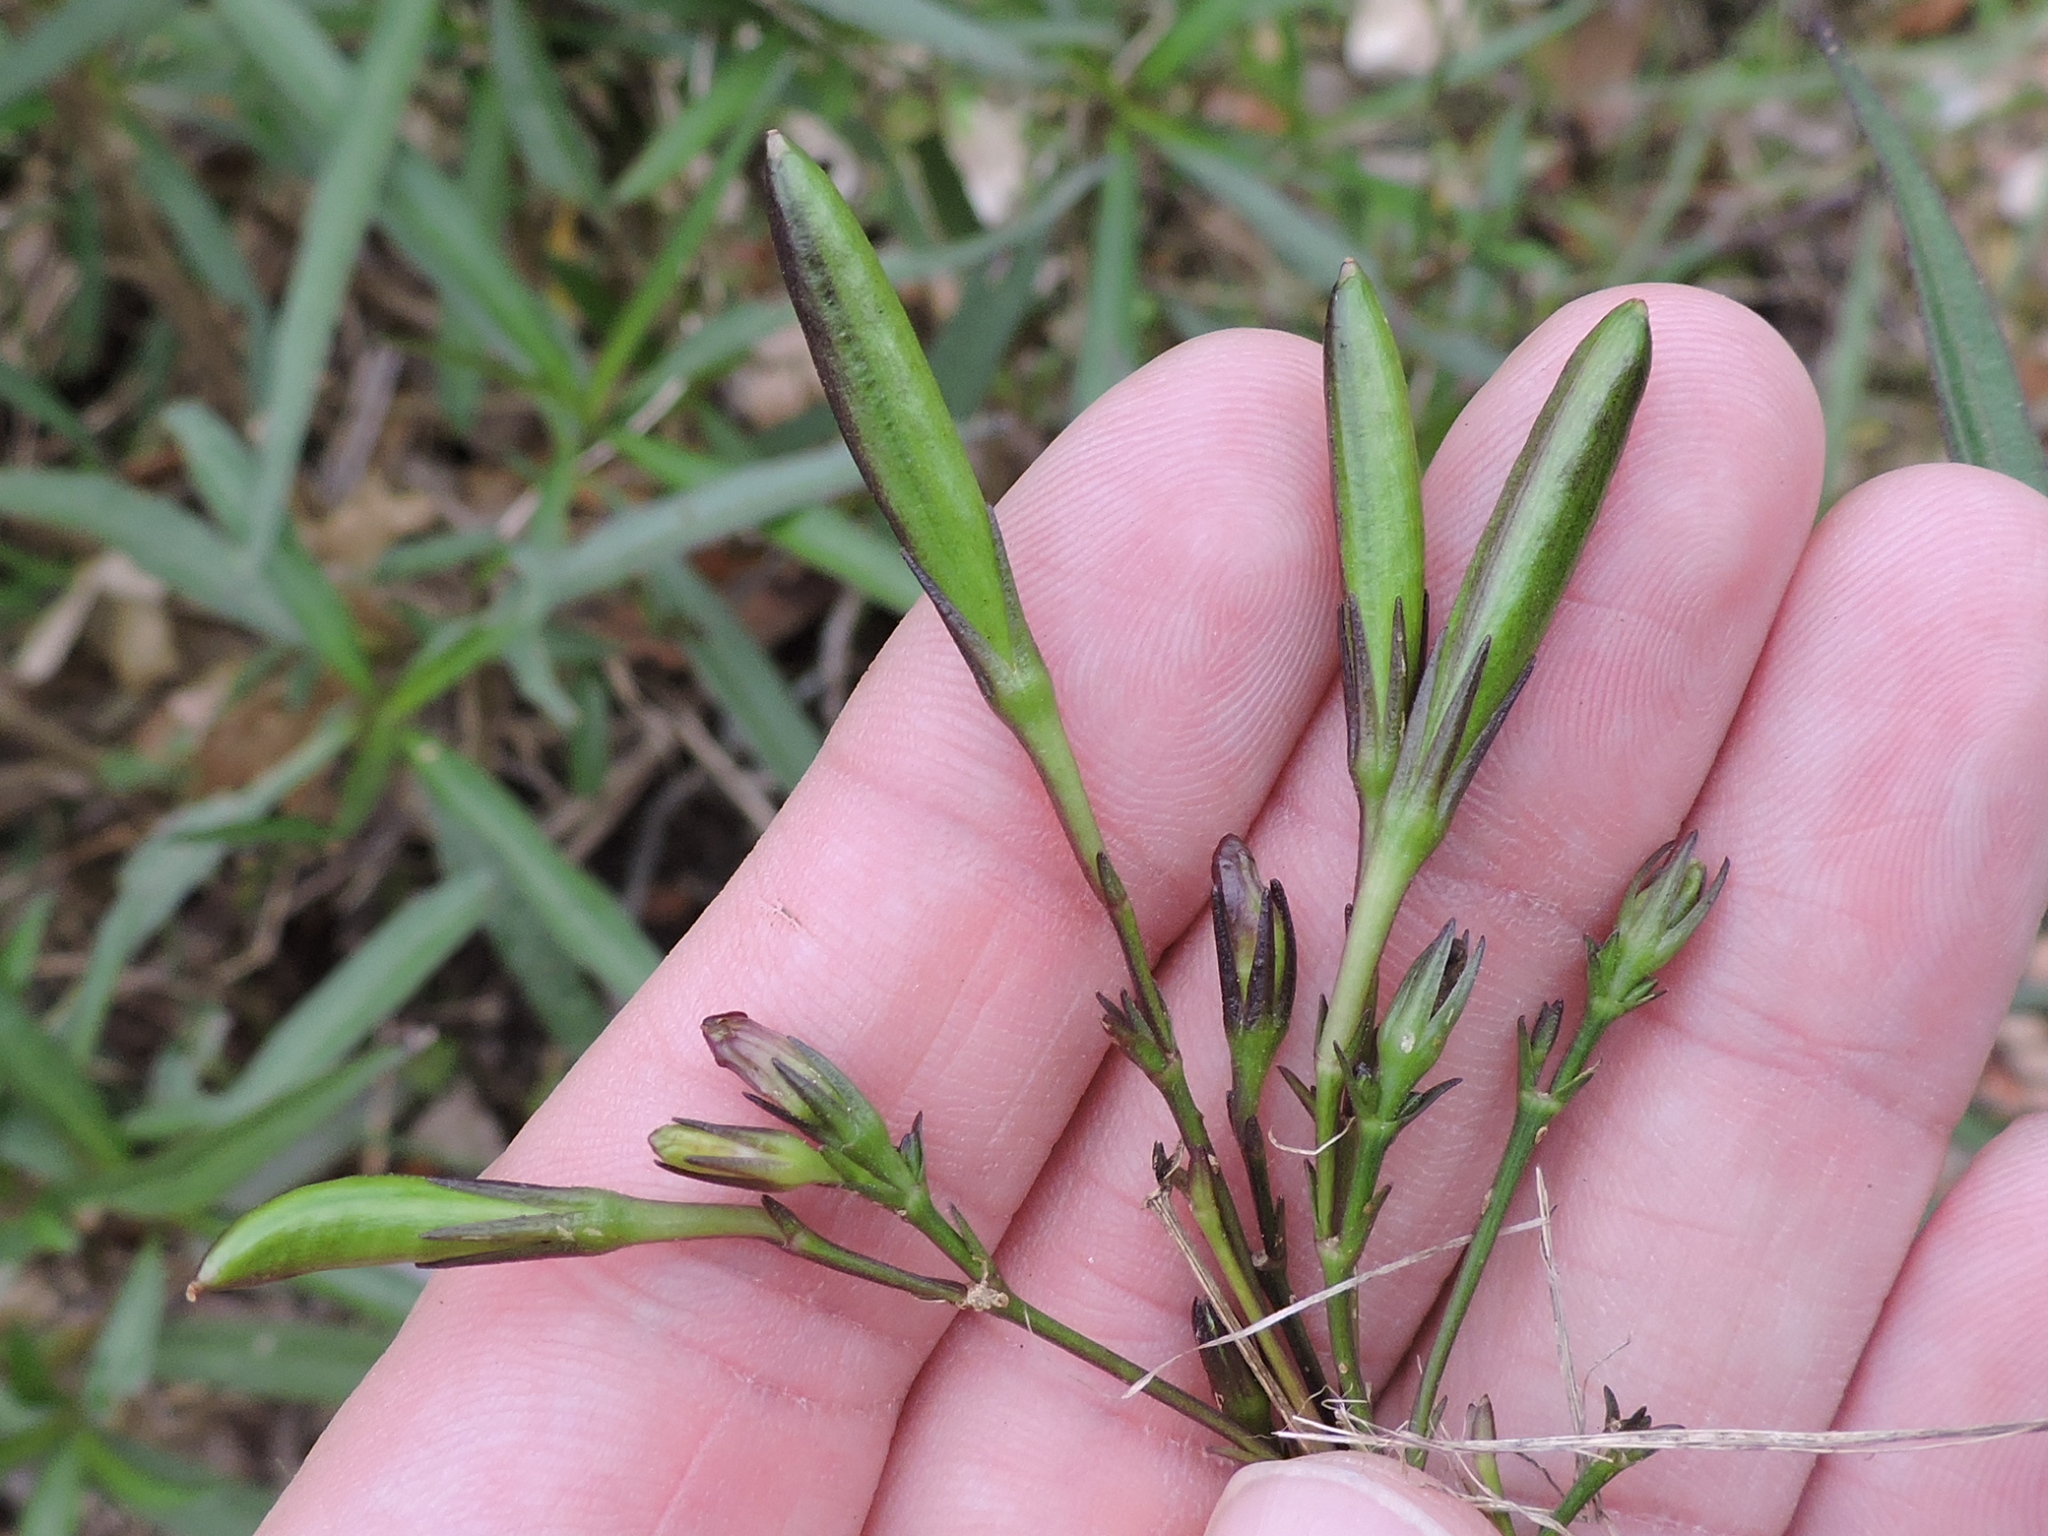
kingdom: Plantae
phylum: Tracheophyta
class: Magnoliopsida
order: Lamiales
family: Acanthaceae
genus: Ruellia
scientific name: Ruellia simplex
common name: Softseed wild petunia
